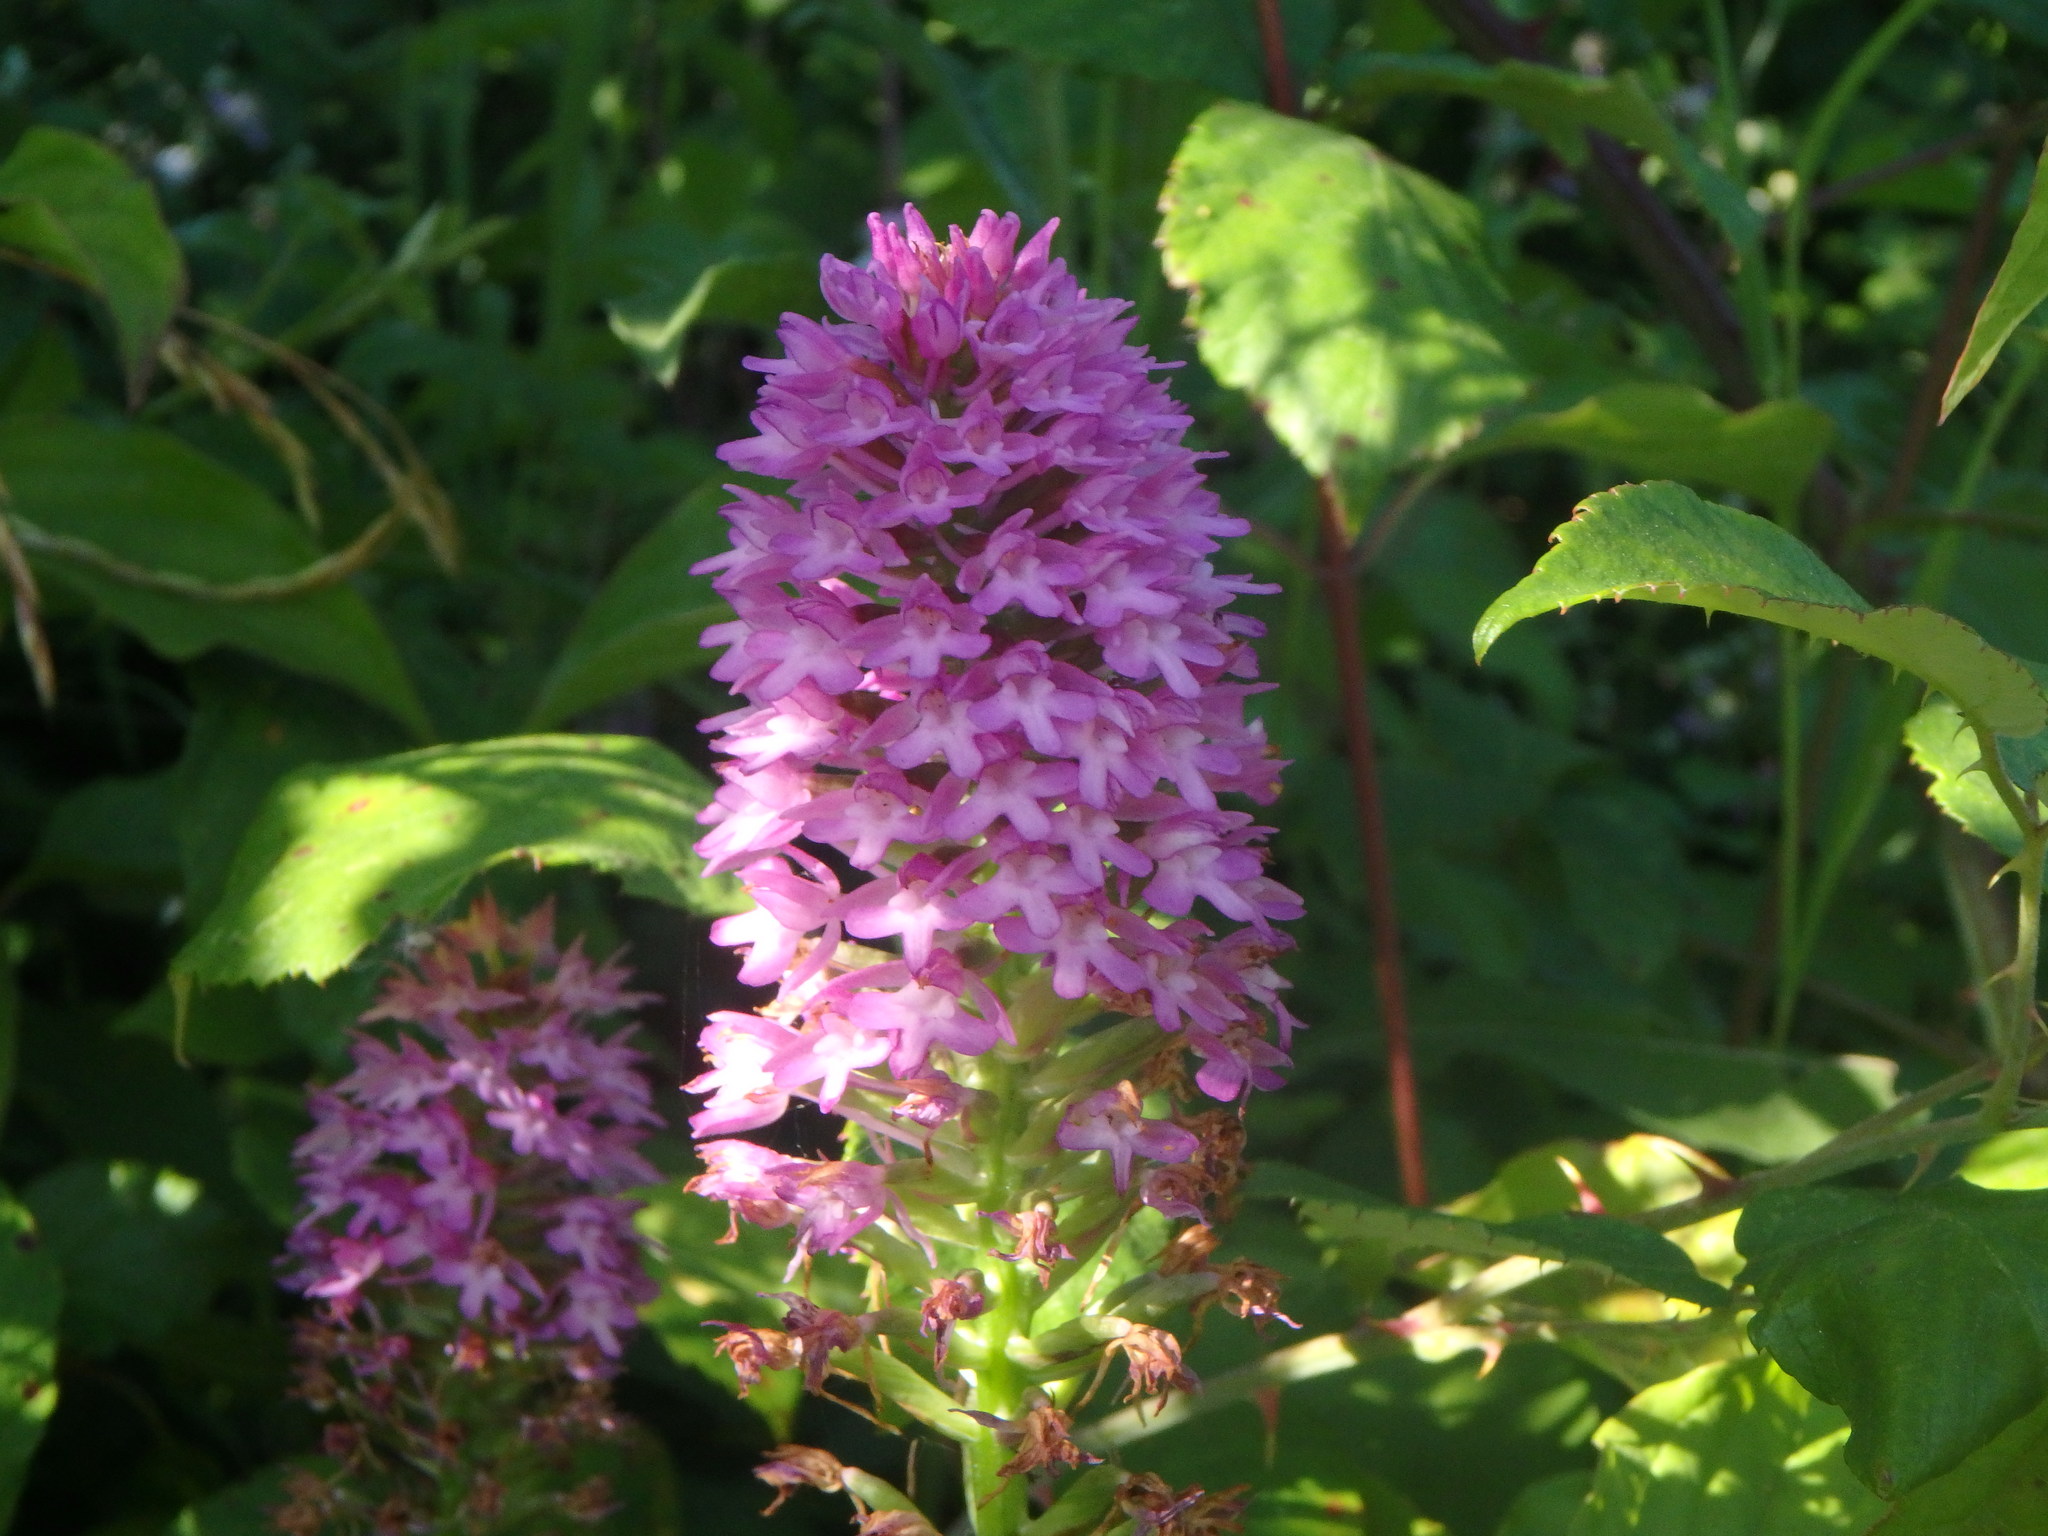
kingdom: Plantae
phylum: Tracheophyta
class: Liliopsida
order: Asparagales
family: Orchidaceae
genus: Anacamptis
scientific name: Anacamptis pyramidalis
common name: Pyramidal orchid
